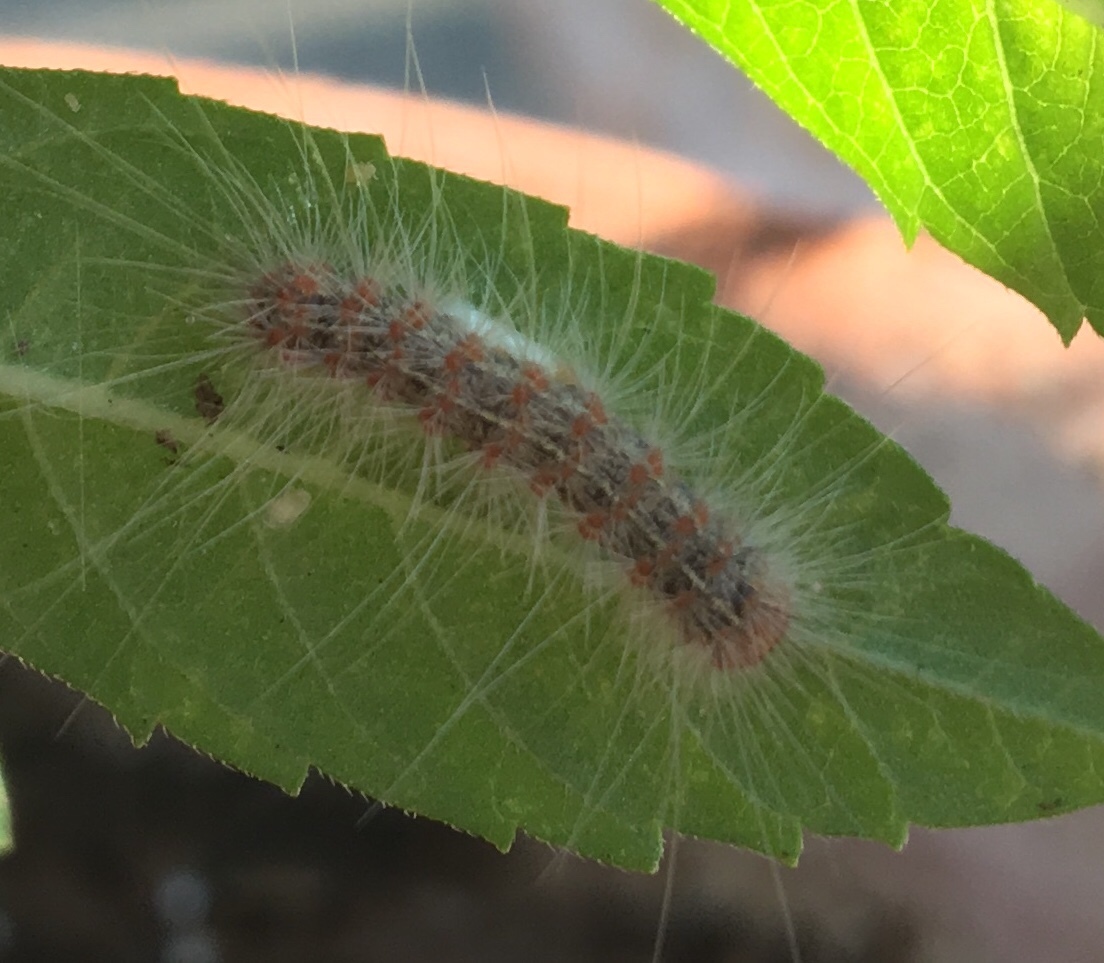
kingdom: Animalia
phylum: Arthropoda
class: Insecta
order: Lepidoptera
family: Erebidae
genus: Hyphantria
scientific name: Hyphantria cunea
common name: American white moth
